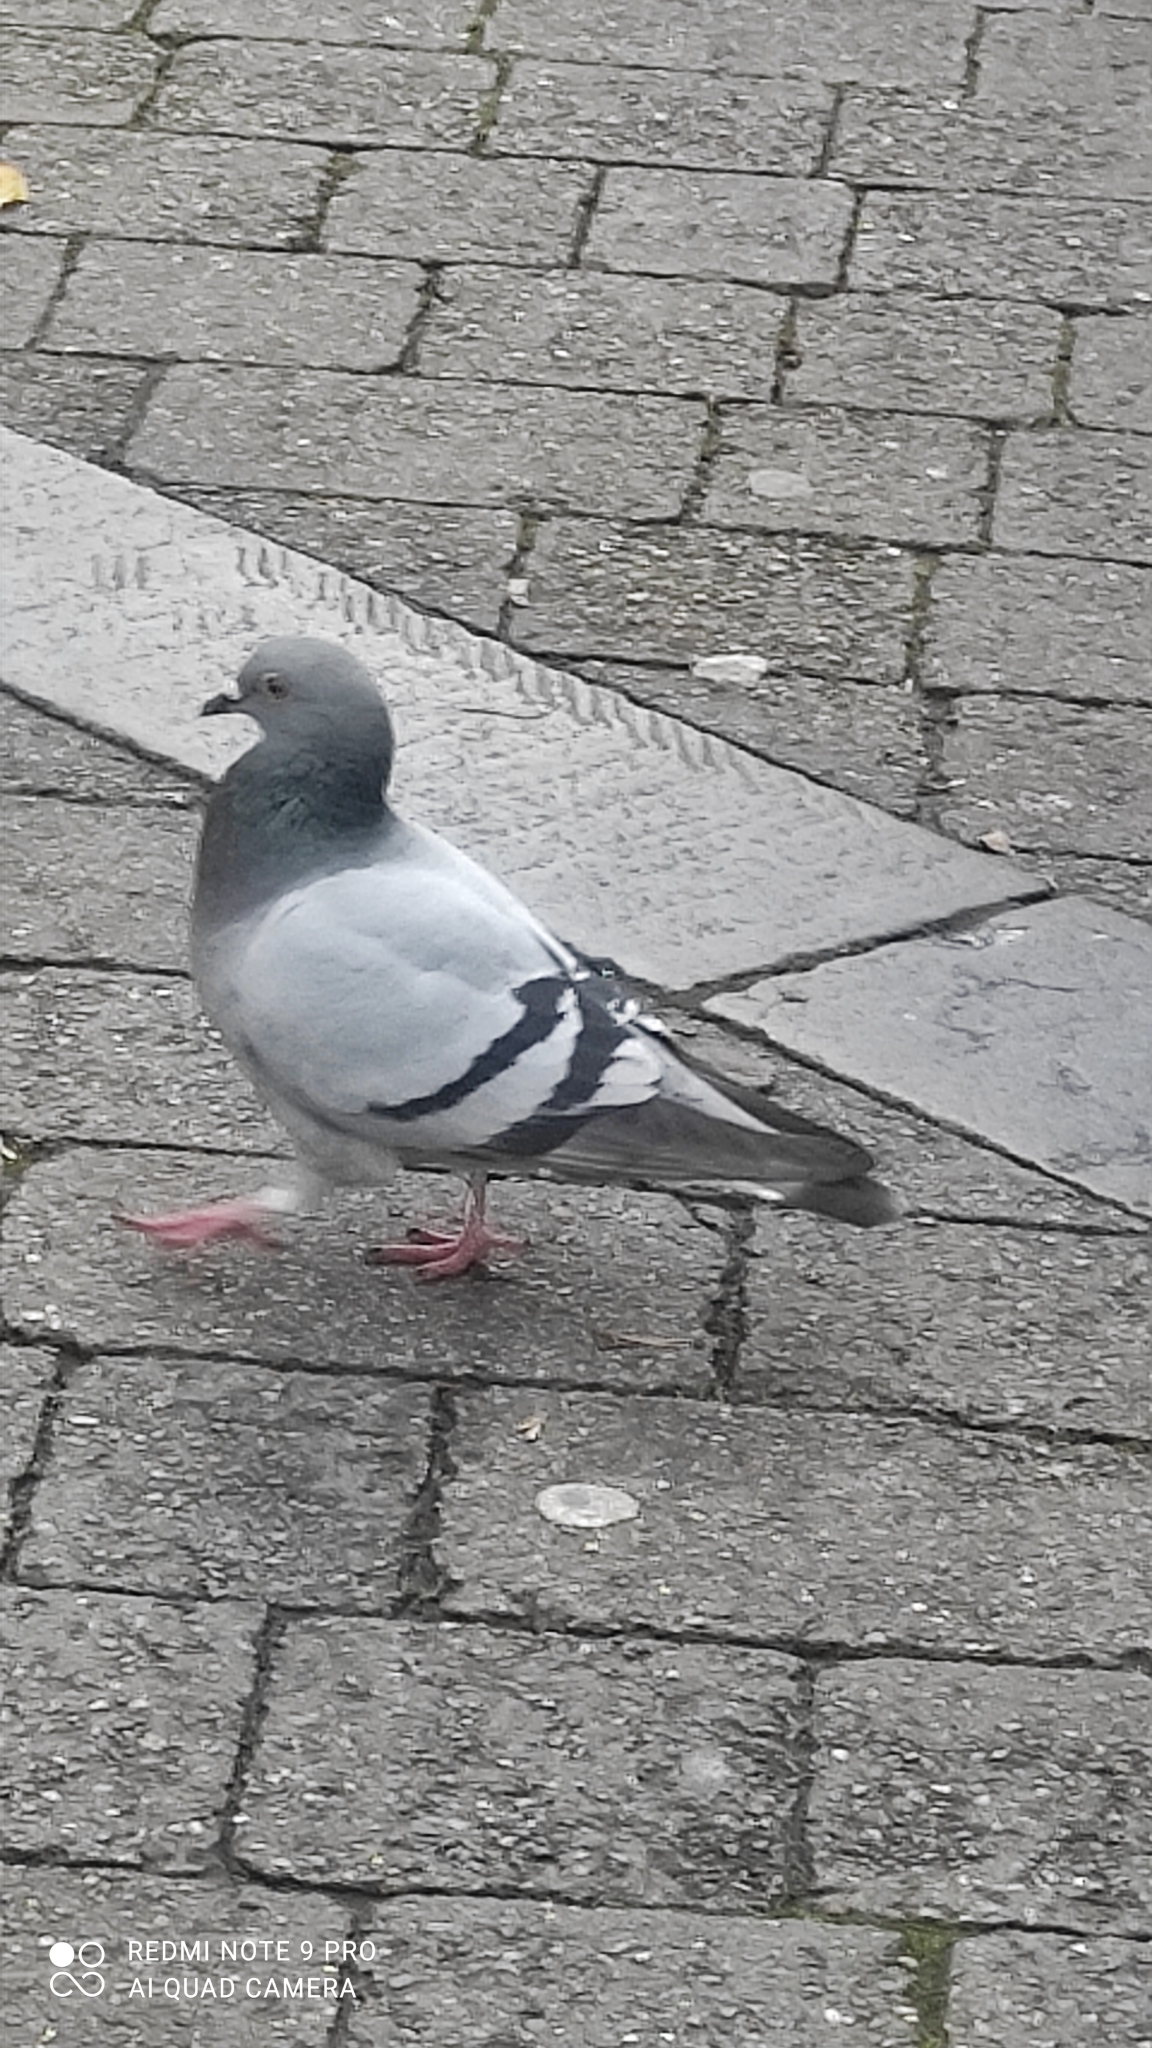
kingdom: Animalia
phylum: Chordata
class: Aves
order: Columbiformes
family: Columbidae
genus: Columba
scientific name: Columba livia
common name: Rock pigeon
